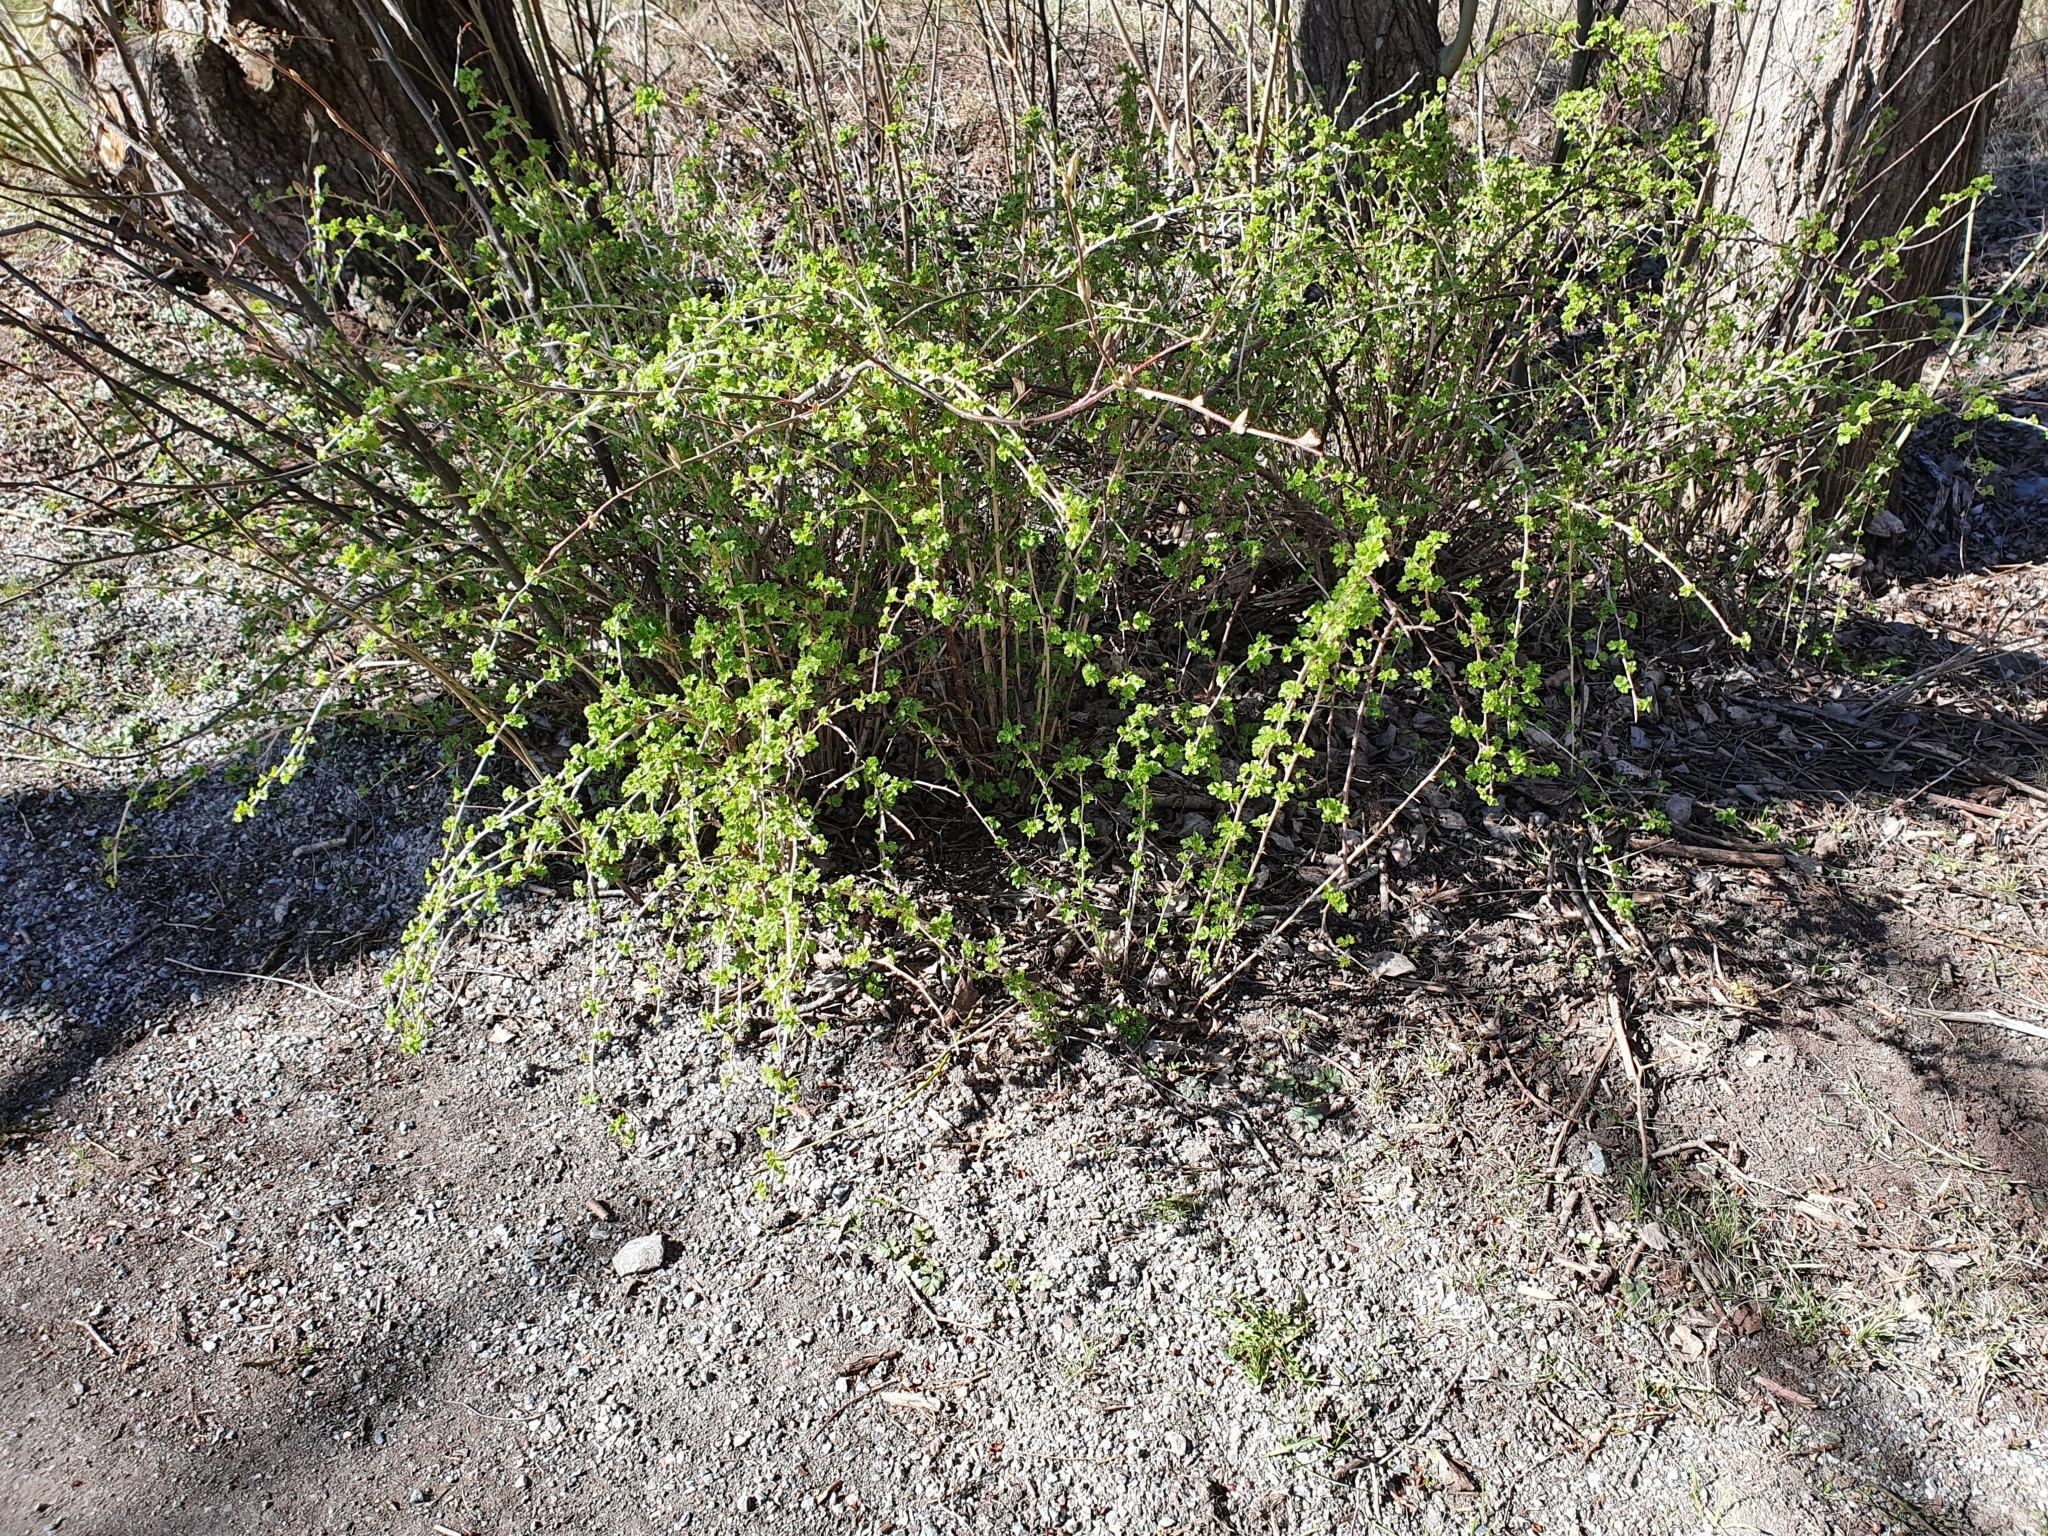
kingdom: Plantae
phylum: Tracheophyta
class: Magnoliopsida
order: Saxifragales
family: Grossulariaceae
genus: Ribes
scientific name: Ribes alpinum
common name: Alpine currant
